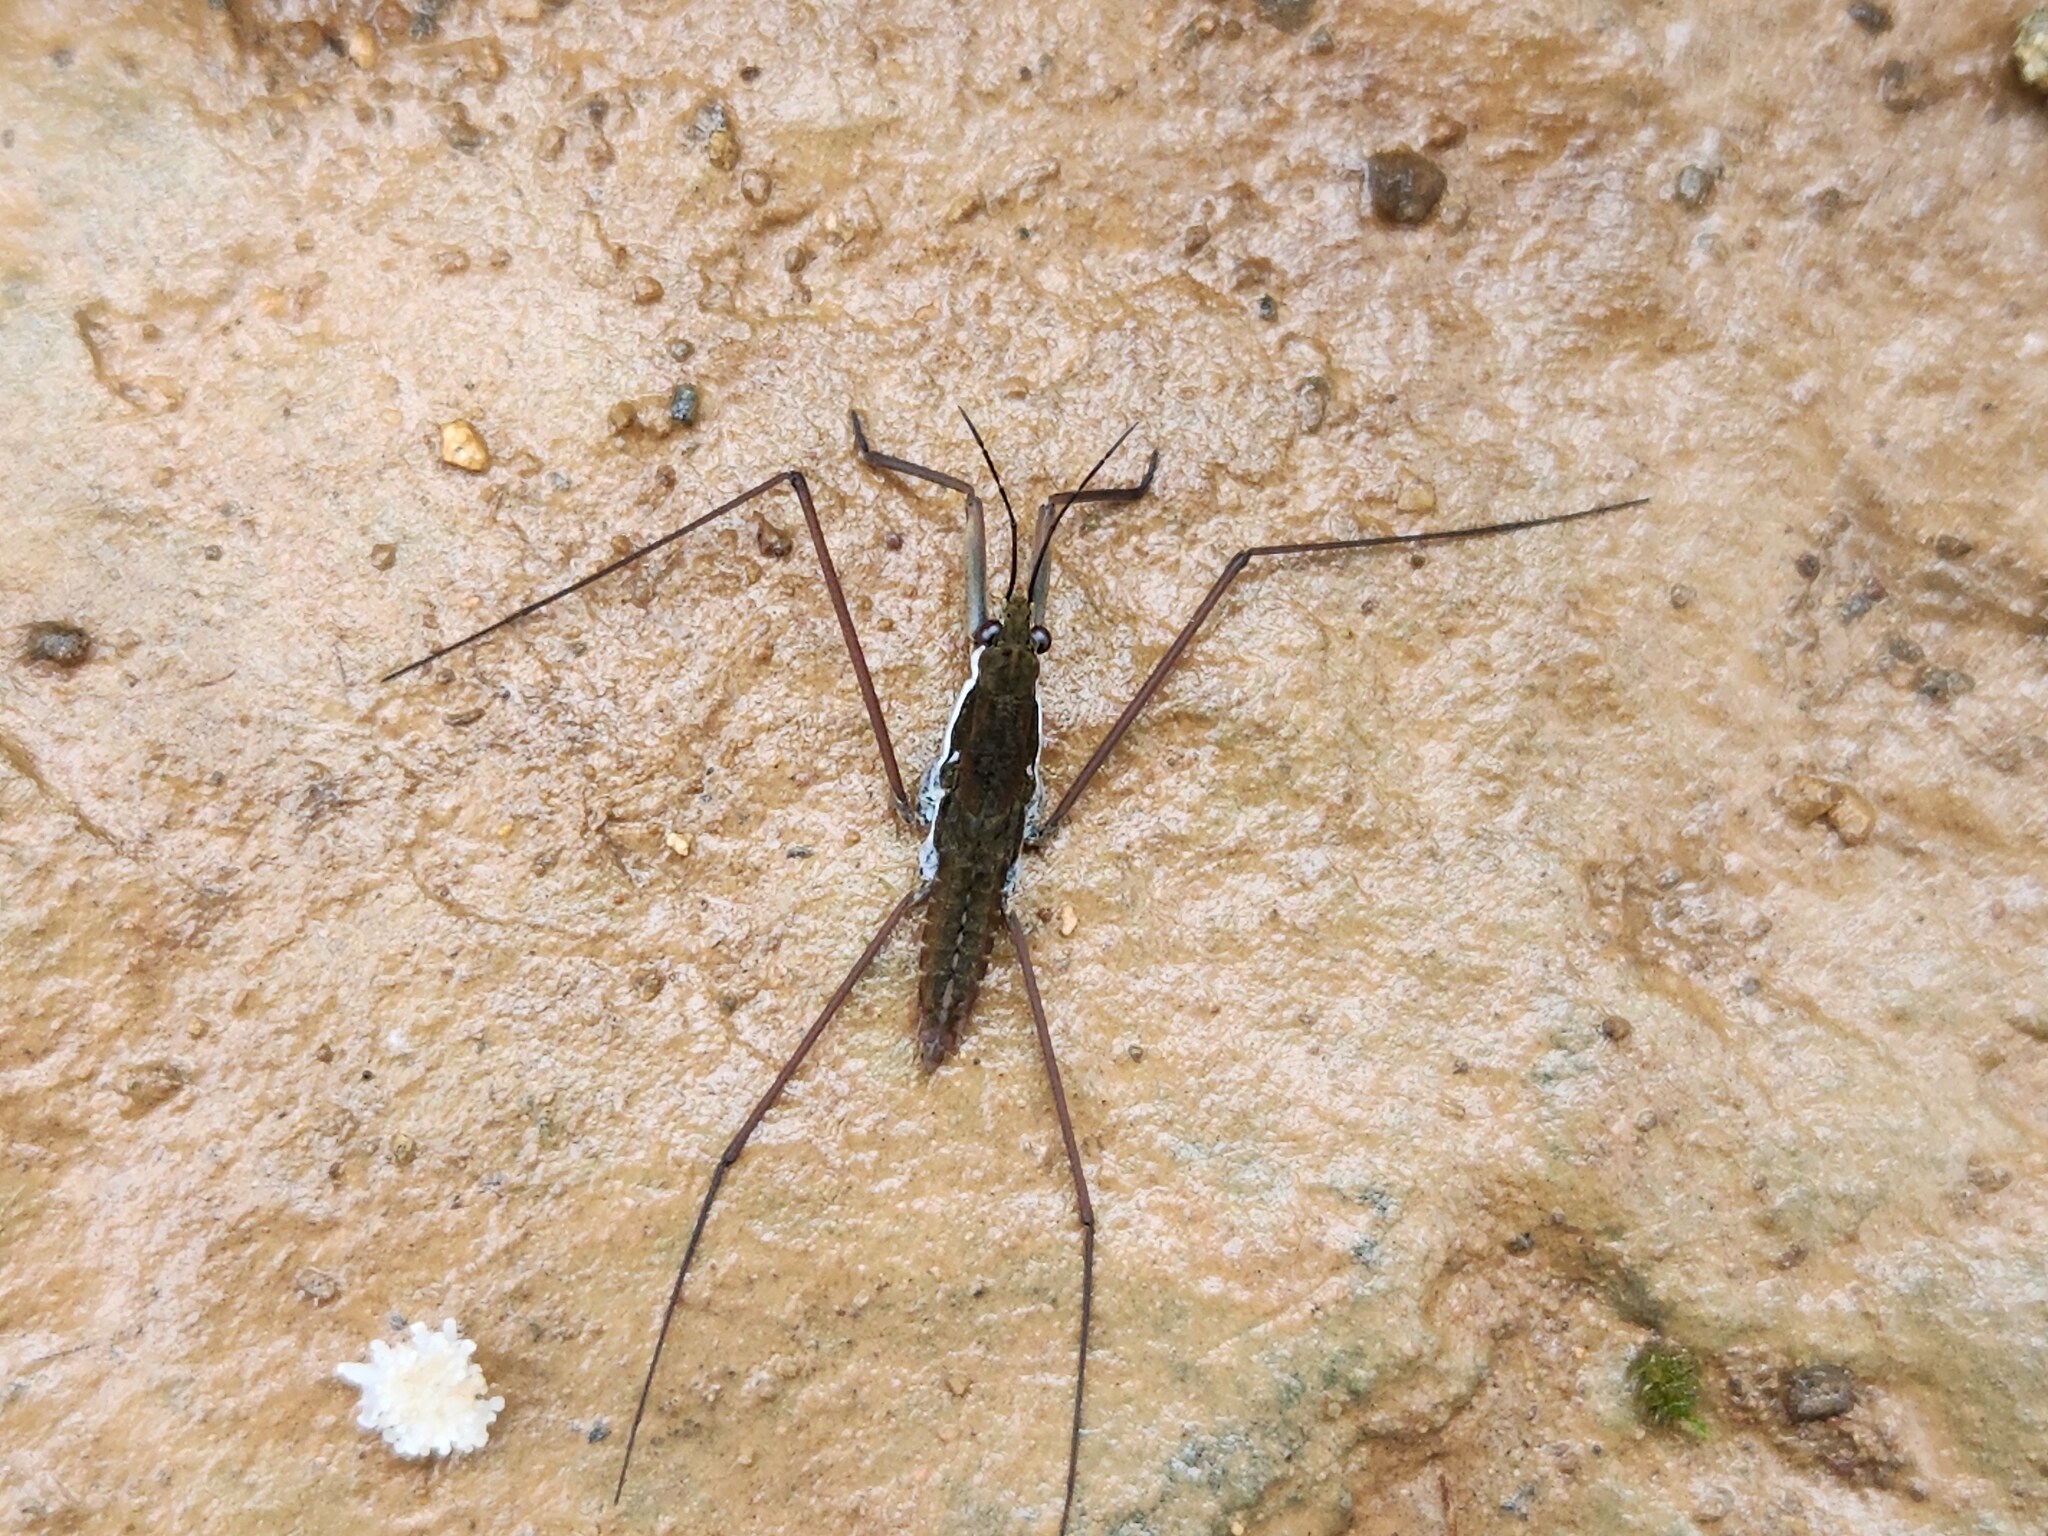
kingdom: Animalia
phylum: Arthropoda
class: Insecta
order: Hemiptera
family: Gerridae
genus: Aquarius
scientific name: Aquarius
